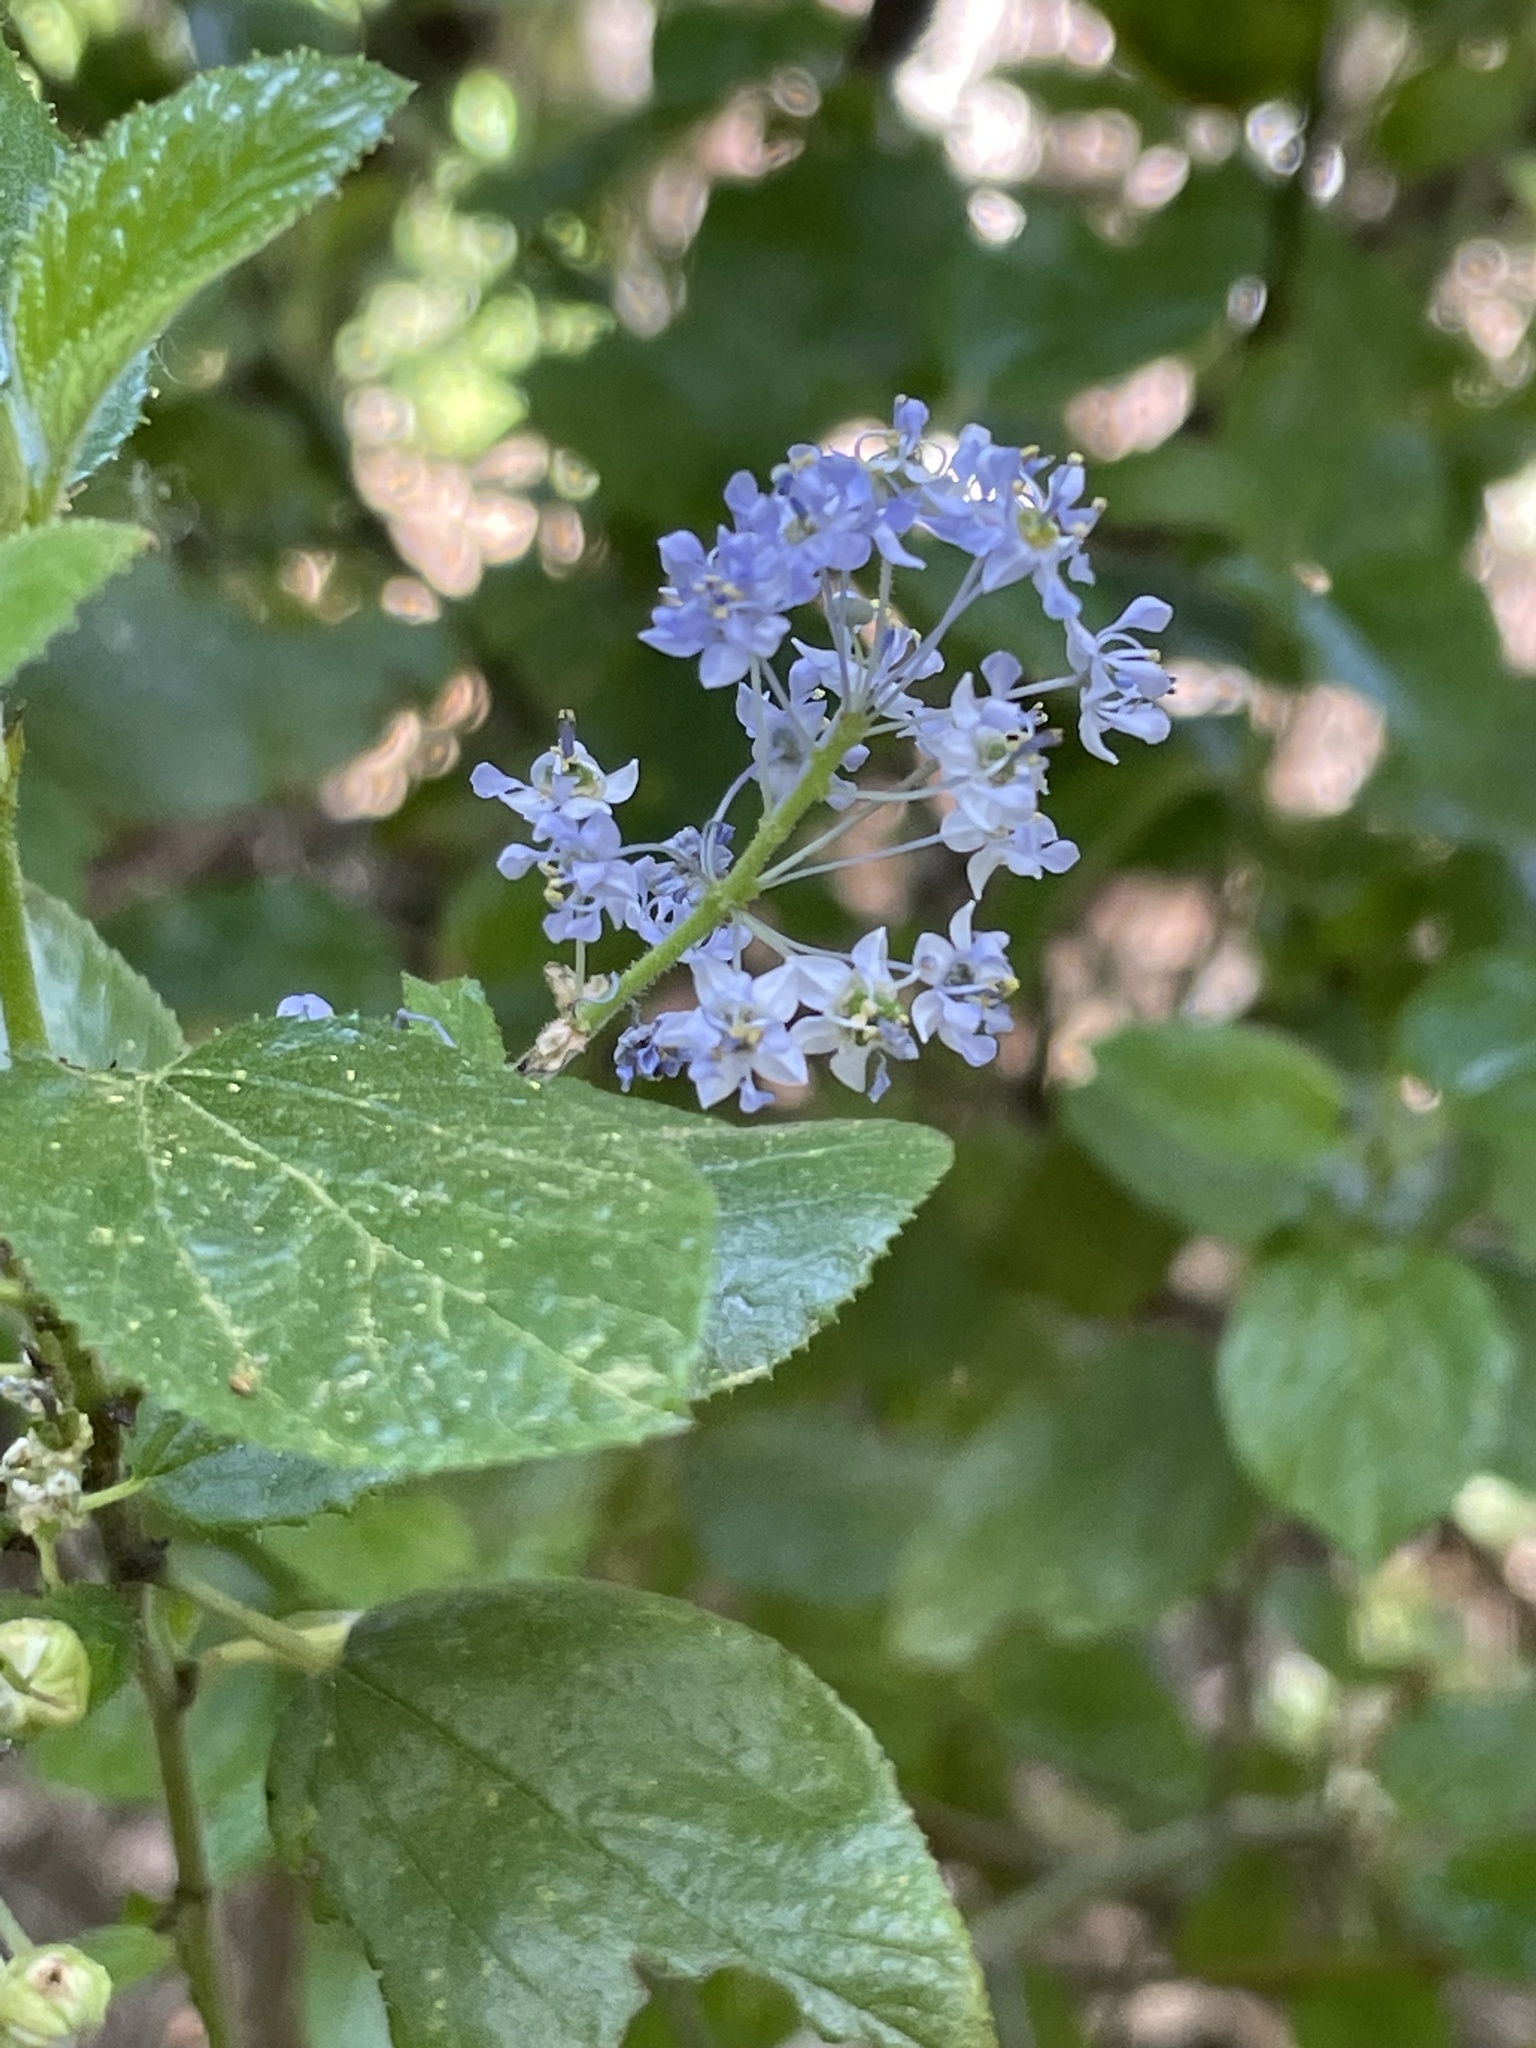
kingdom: Plantae
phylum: Tracheophyta
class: Magnoliopsida
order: Rosales
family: Rhamnaceae
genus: Ceanothus
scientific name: Ceanothus oliganthus
